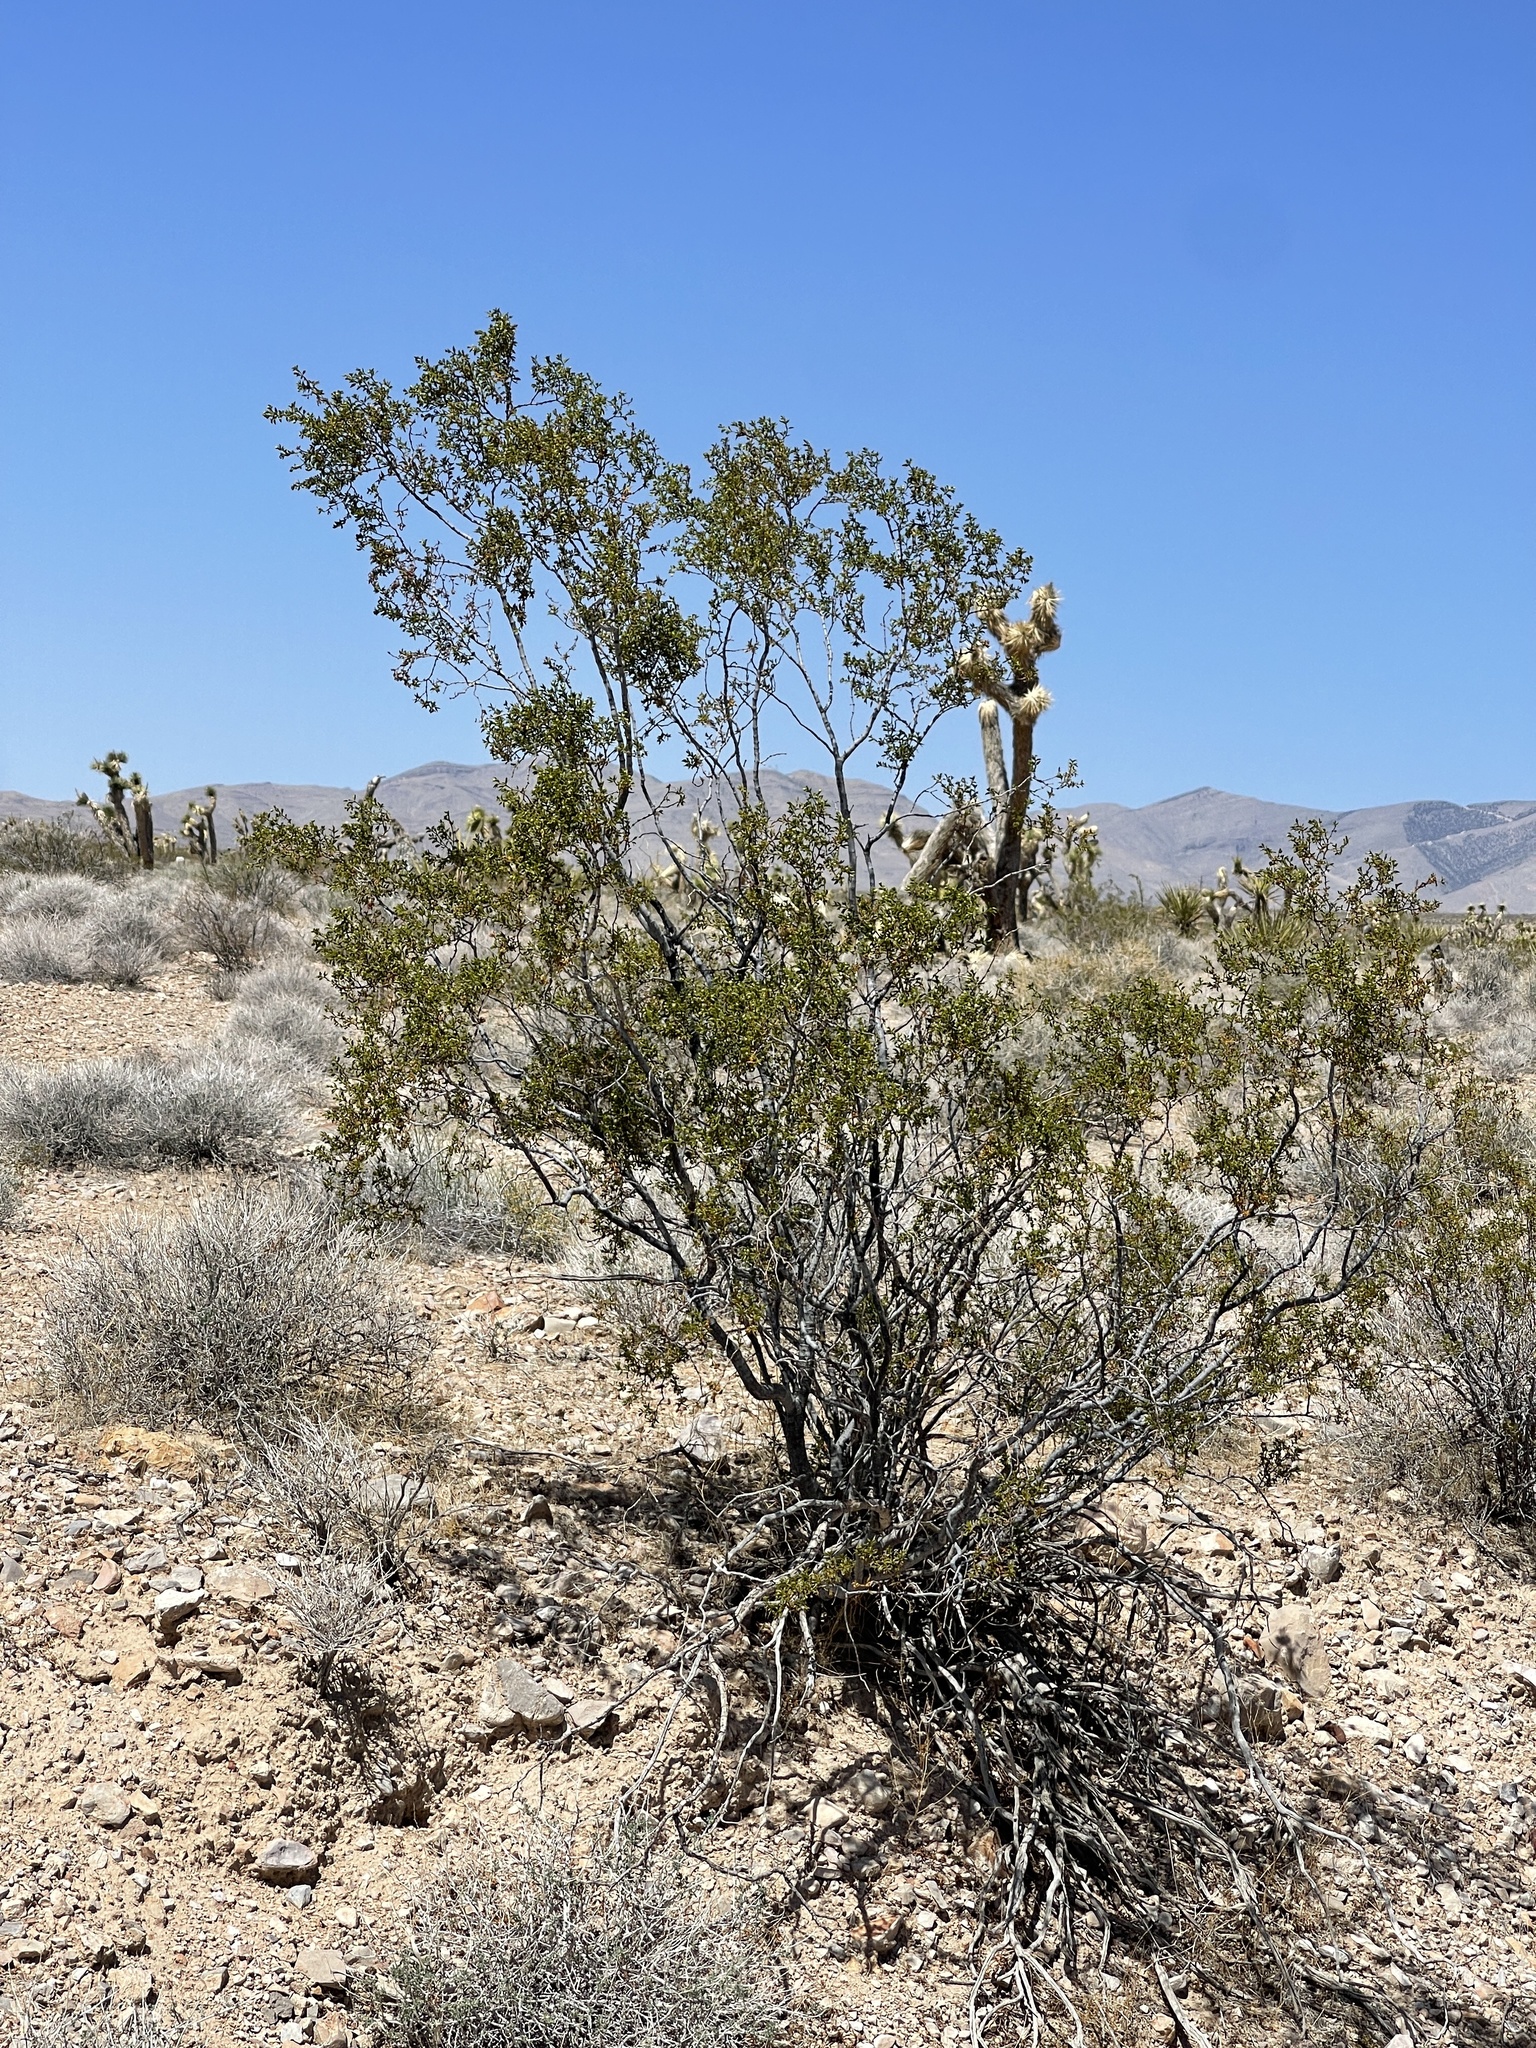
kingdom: Plantae
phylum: Tracheophyta
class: Magnoliopsida
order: Zygophyllales
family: Zygophyllaceae
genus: Larrea
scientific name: Larrea tridentata
